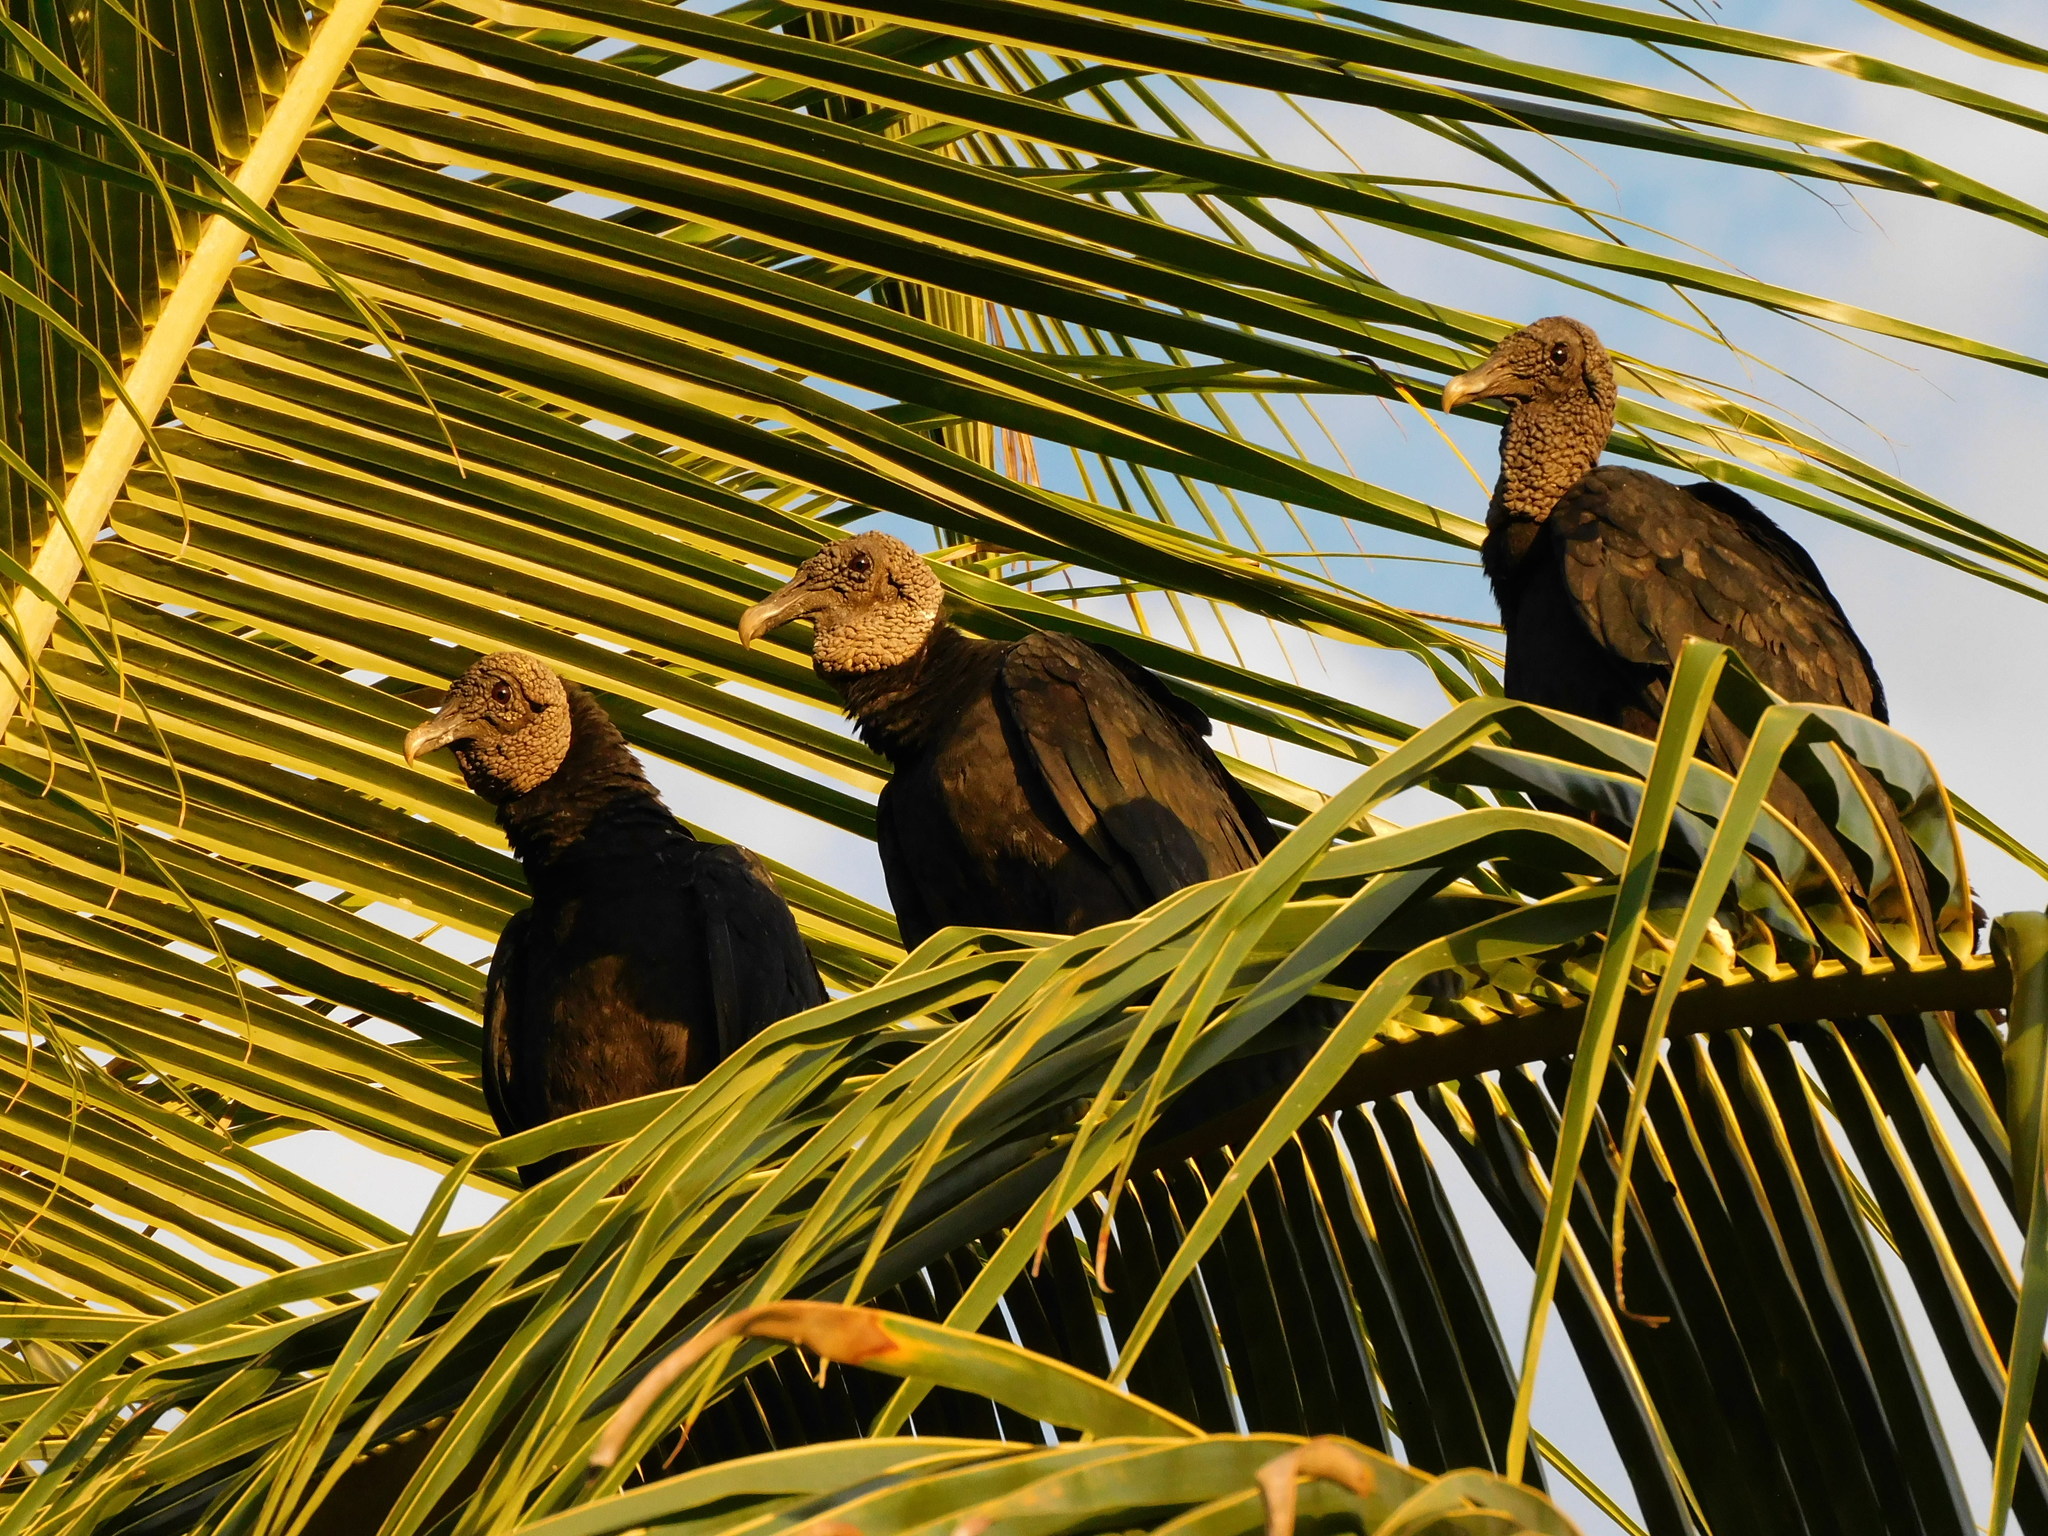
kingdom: Animalia
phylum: Chordata
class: Aves
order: Accipitriformes
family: Cathartidae
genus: Coragyps
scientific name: Coragyps atratus
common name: Black vulture
